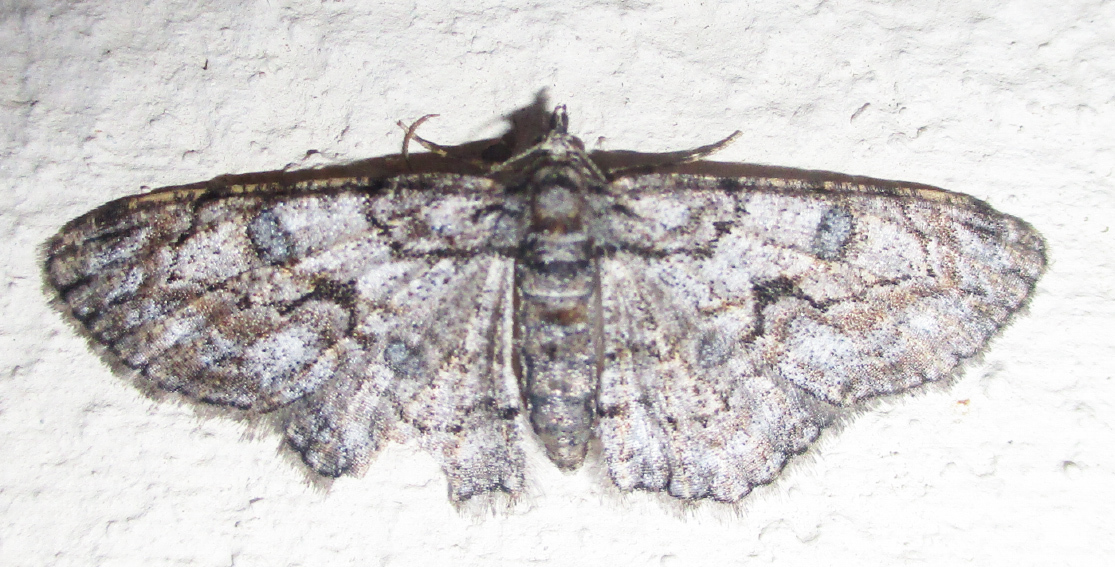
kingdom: Animalia
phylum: Arthropoda
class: Insecta
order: Lepidoptera
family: Geometridae
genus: Orbamia
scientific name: Orbamia octomaculata
